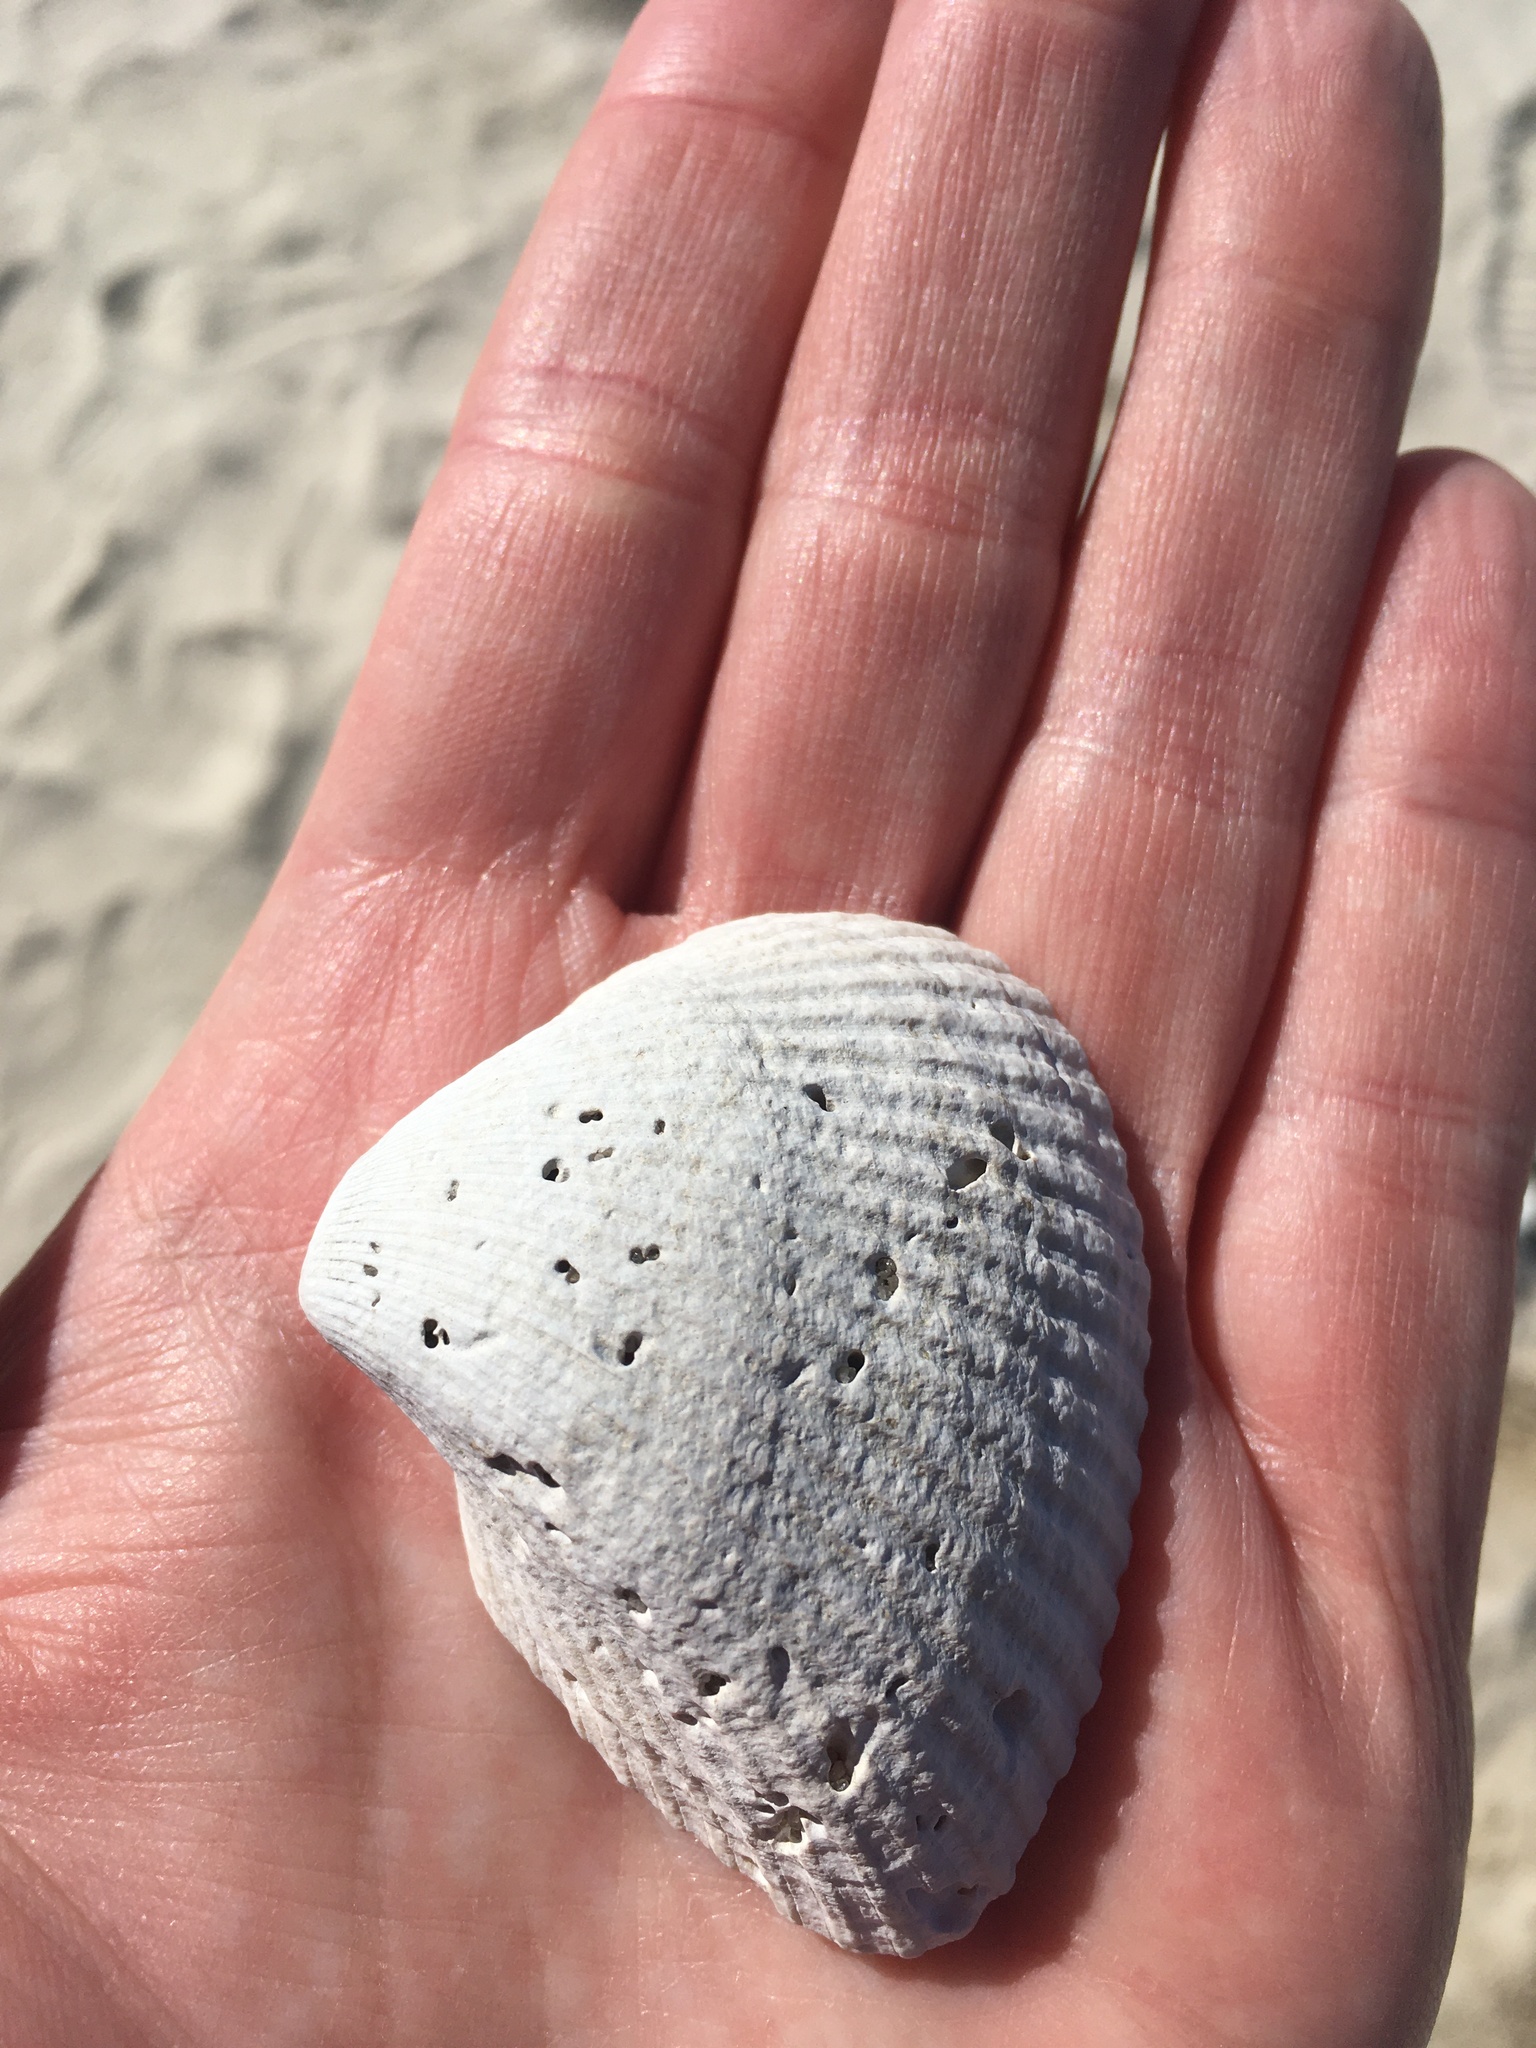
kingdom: Animalia
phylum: Mollusca
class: Bivalvia
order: Arcida
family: Noetiidae
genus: Noetia
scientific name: Noetia ponderosa
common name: Ponderous ark
